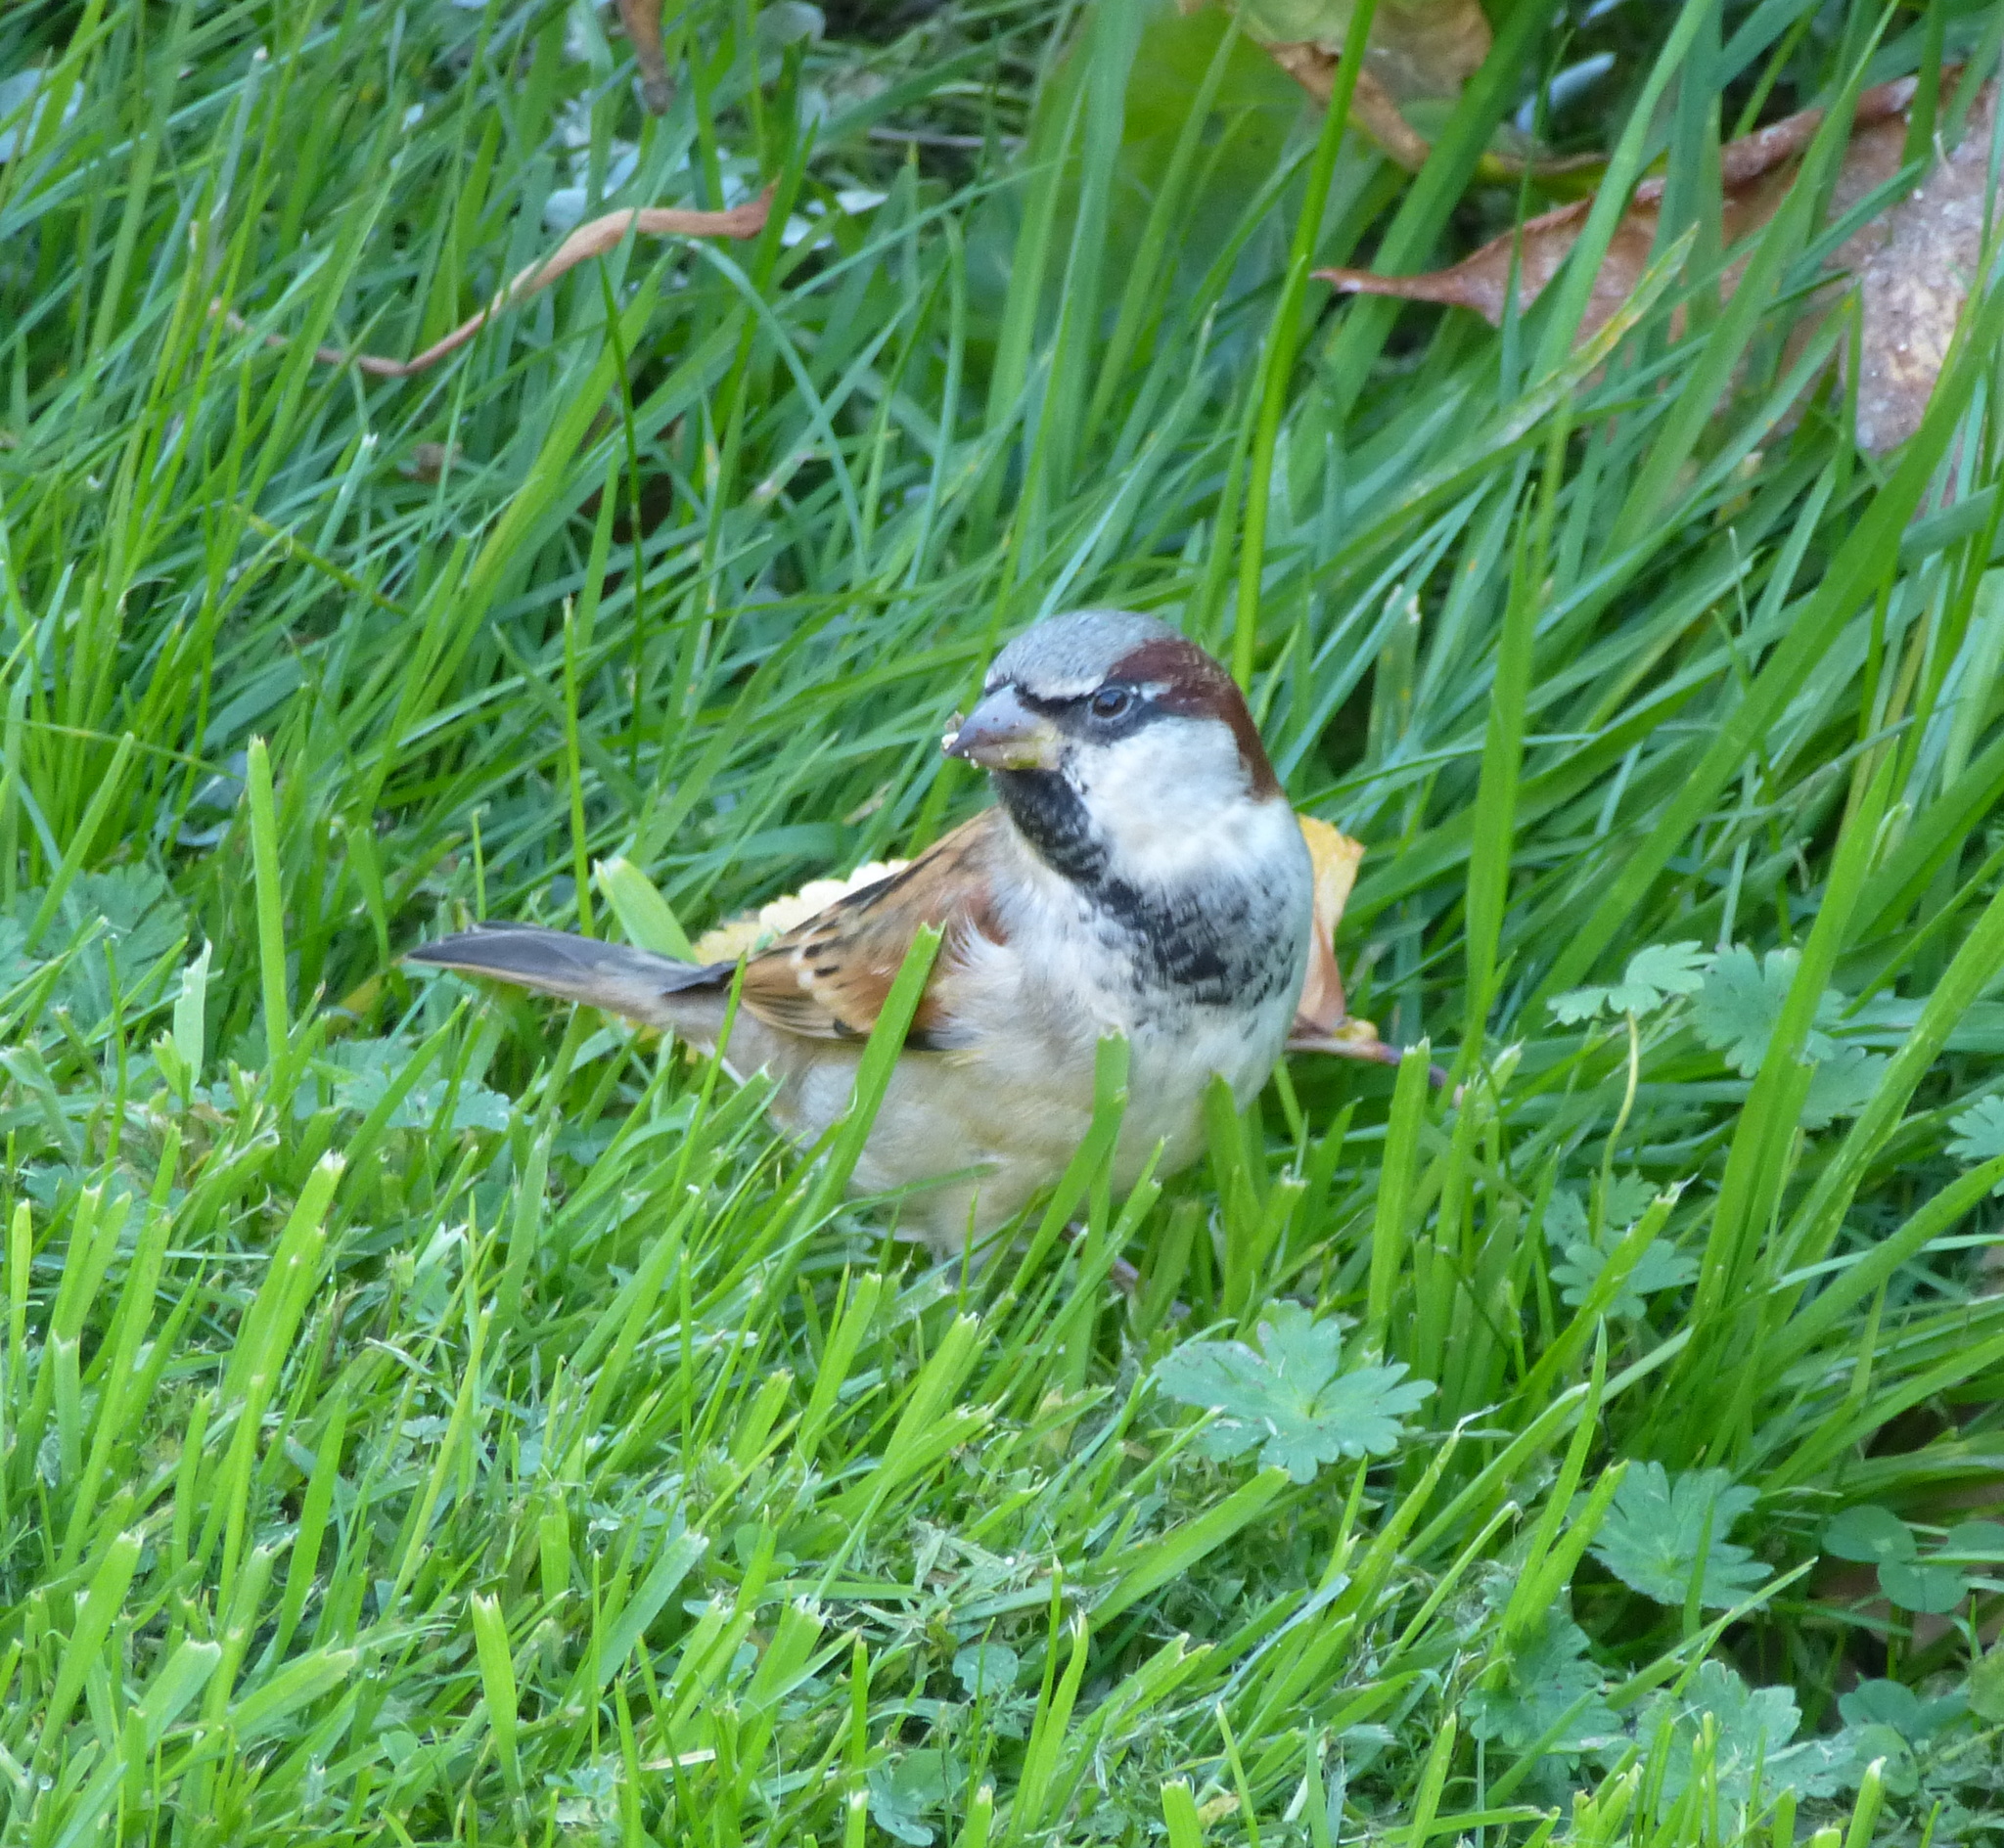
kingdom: Animalia
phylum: Chordata
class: Aves
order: Passeriformes
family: Passeridae
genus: Passer
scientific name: Passer domesticus
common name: House sparrow
